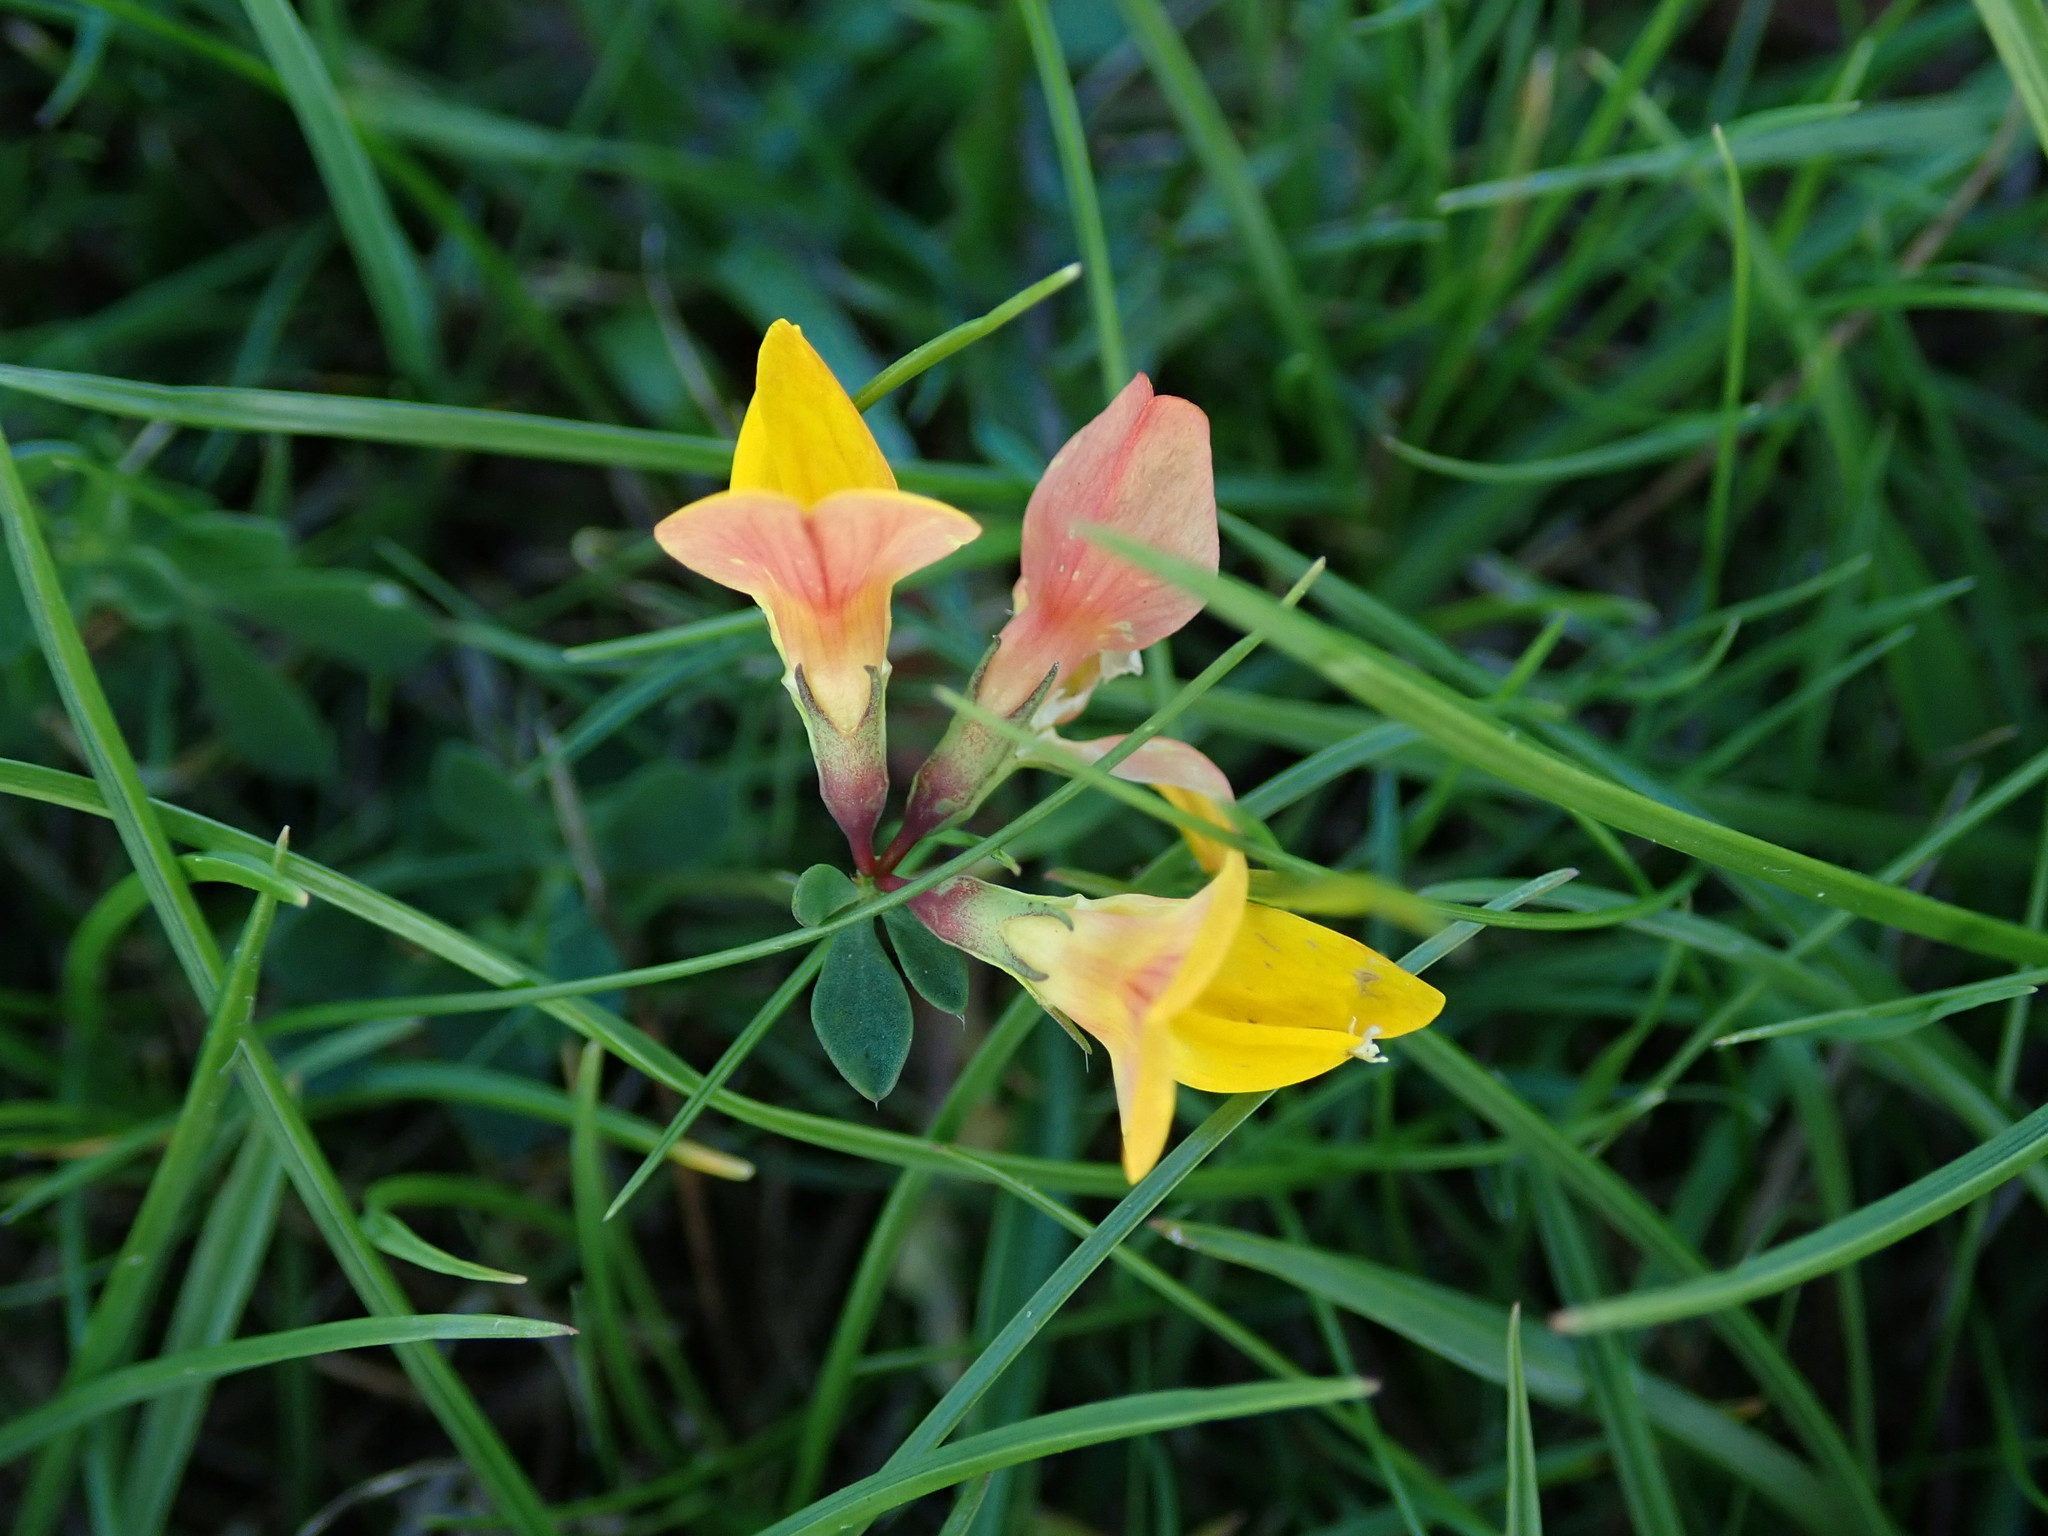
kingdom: Plantae
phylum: Tracheophyta
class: Magnoliopsida
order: Fabales
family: Fabaceae
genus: Lotus
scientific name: Lotus corniculatus
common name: Common bird's-foot-trefoil
